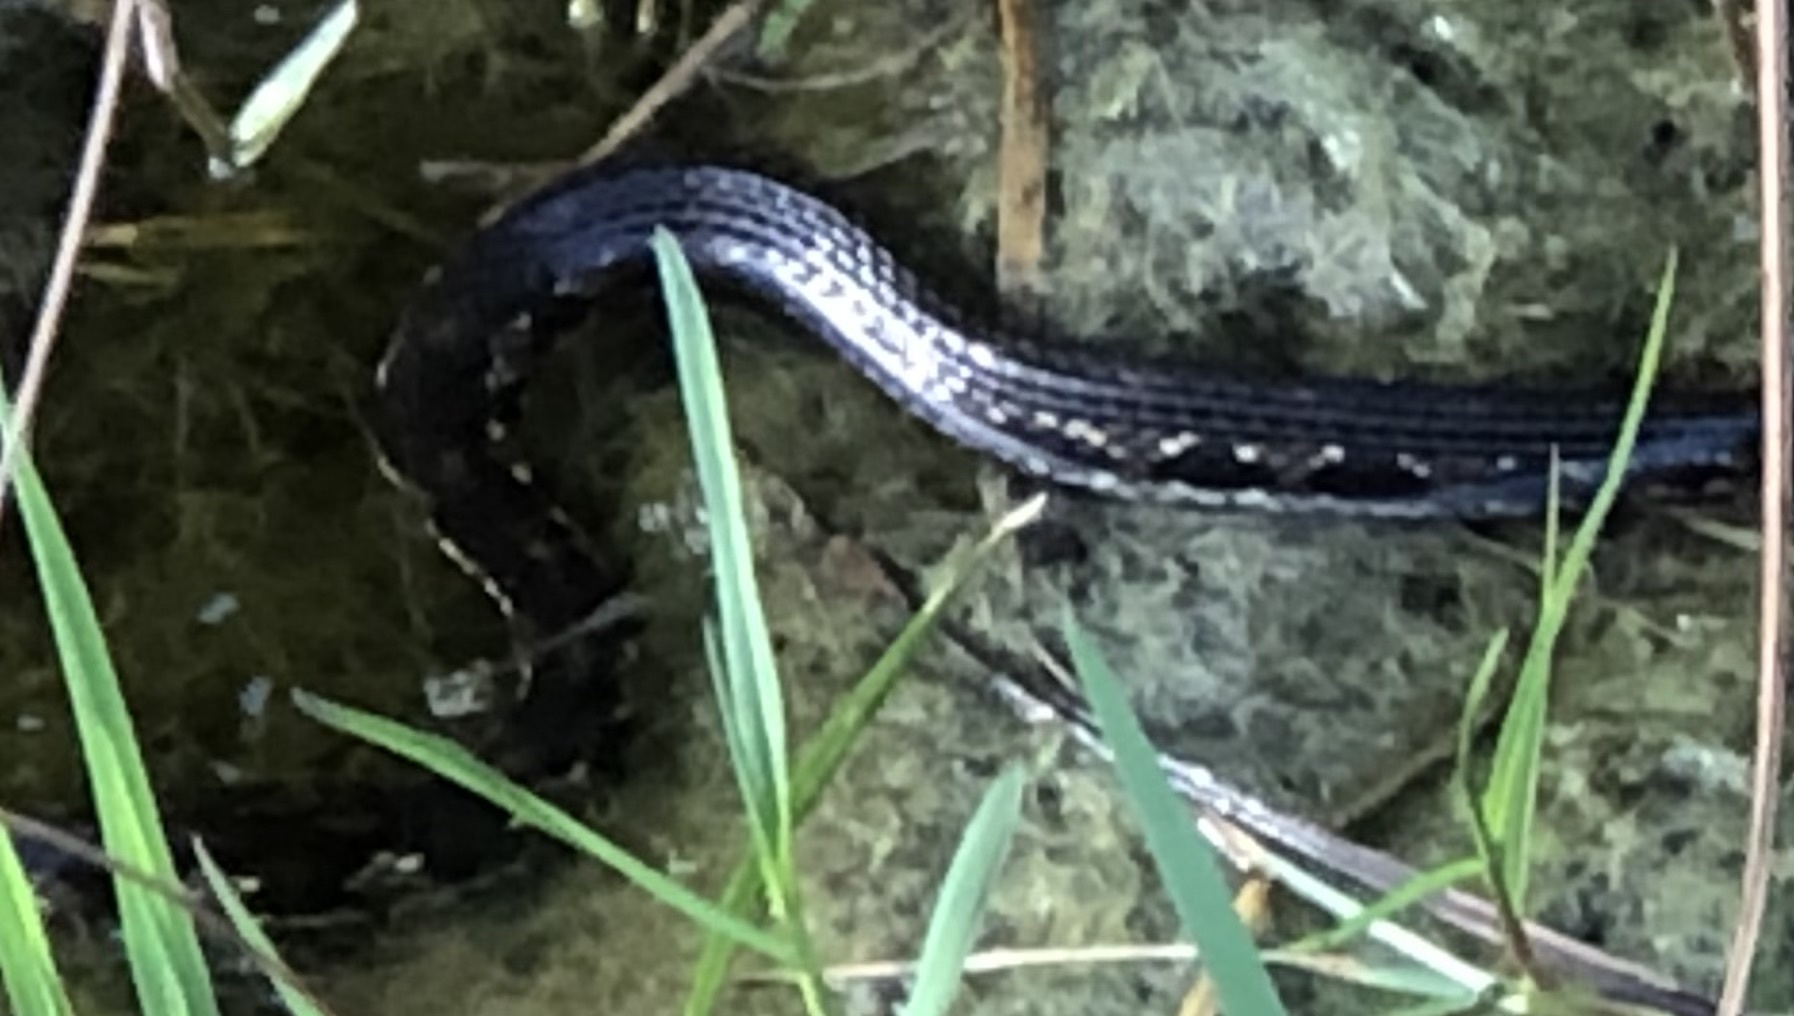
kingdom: Animalia
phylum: Chordata
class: Squamata
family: Colubridae
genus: Nerodia
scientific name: Nerodia clarkii
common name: Atlantic saltmarsh snake
